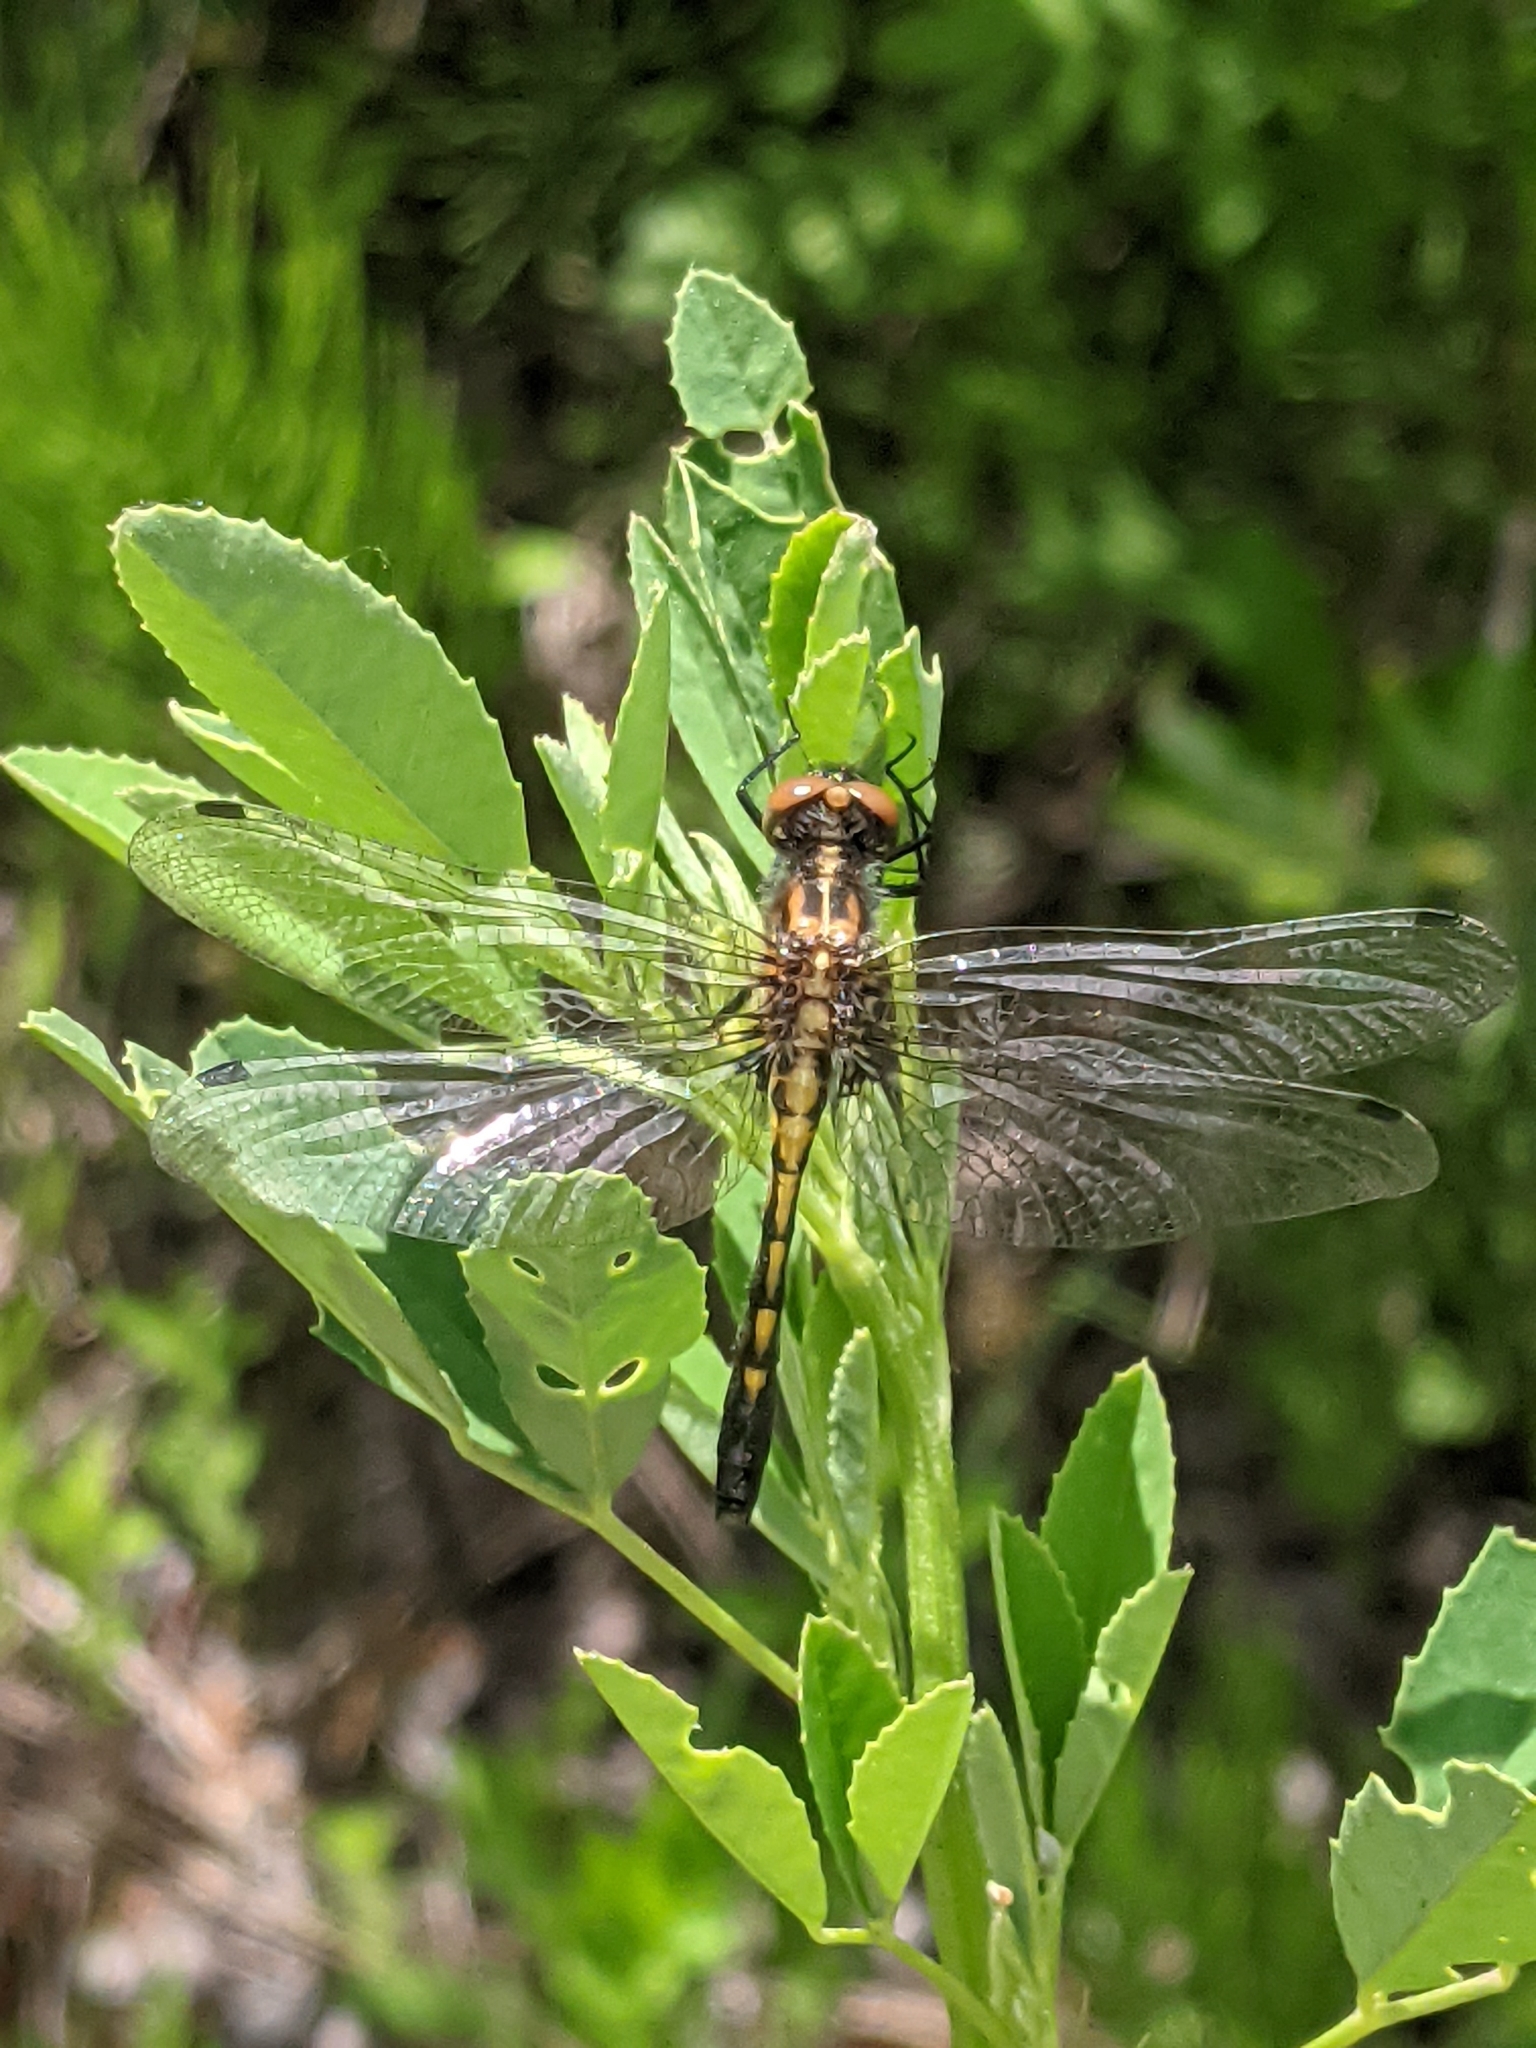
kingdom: Animalia
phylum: Arthropoda
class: Insecta
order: Odonata
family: Libellulidae
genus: Leucorrhinia
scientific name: Leucorrhinia intacta
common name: Dot-tailed whiteface
